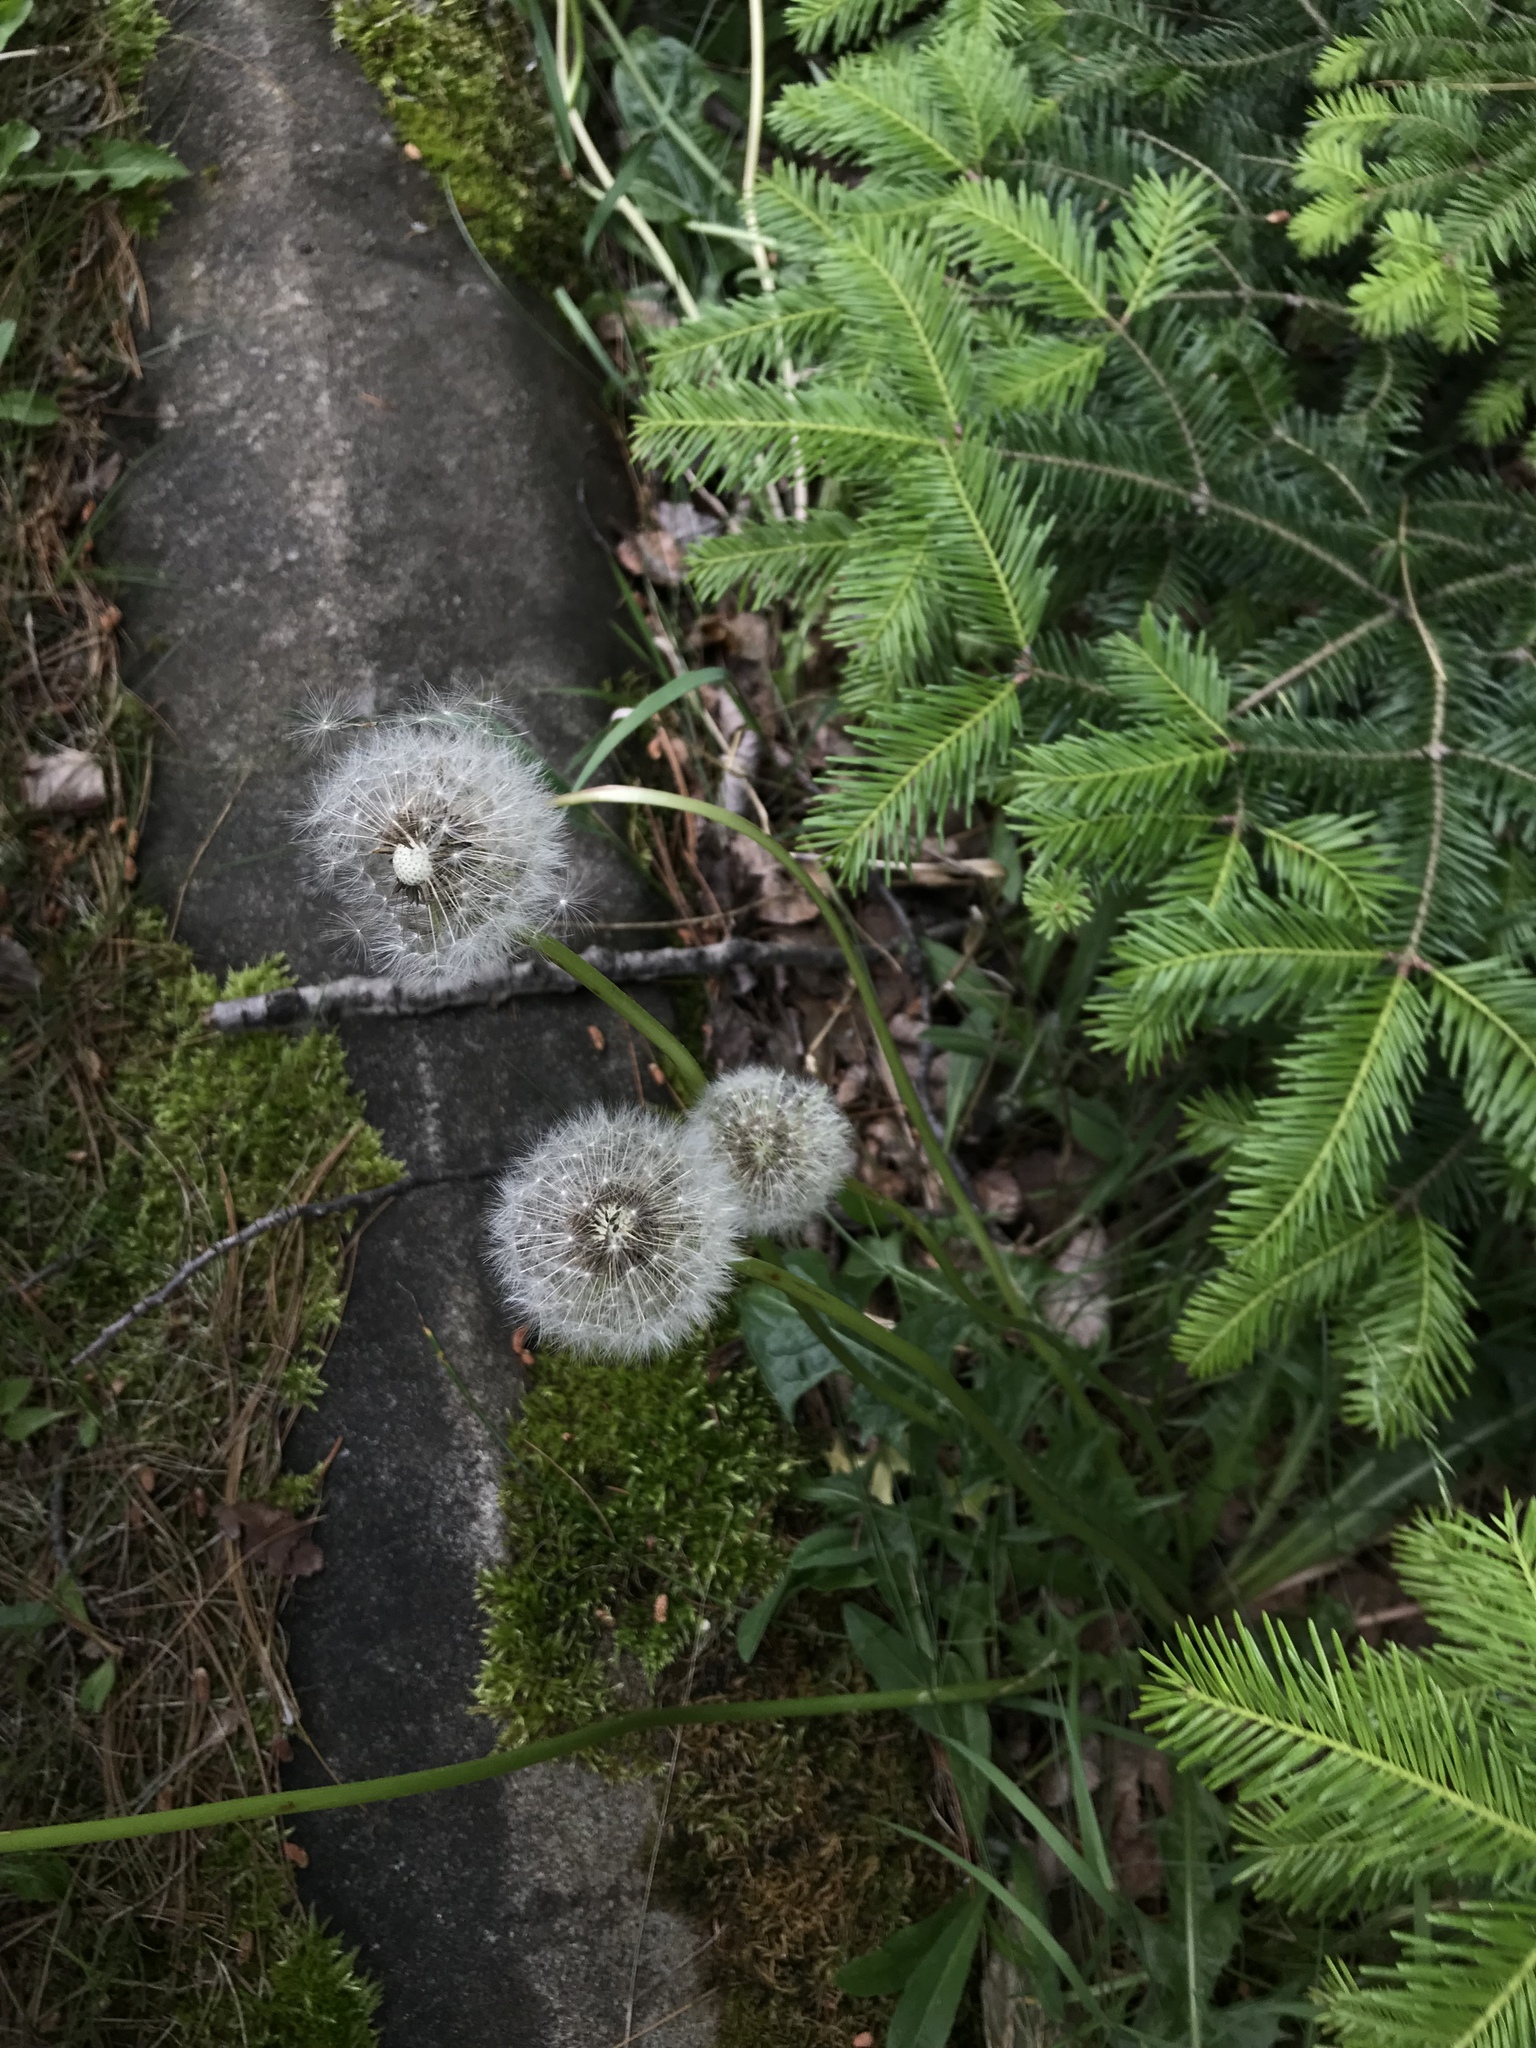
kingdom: Plantae
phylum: Tracheophyta
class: Magnoliopsida
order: Asterales
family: Asteraceae
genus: Taraxacum
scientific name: Taraxacum officinale
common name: Common dandelion
